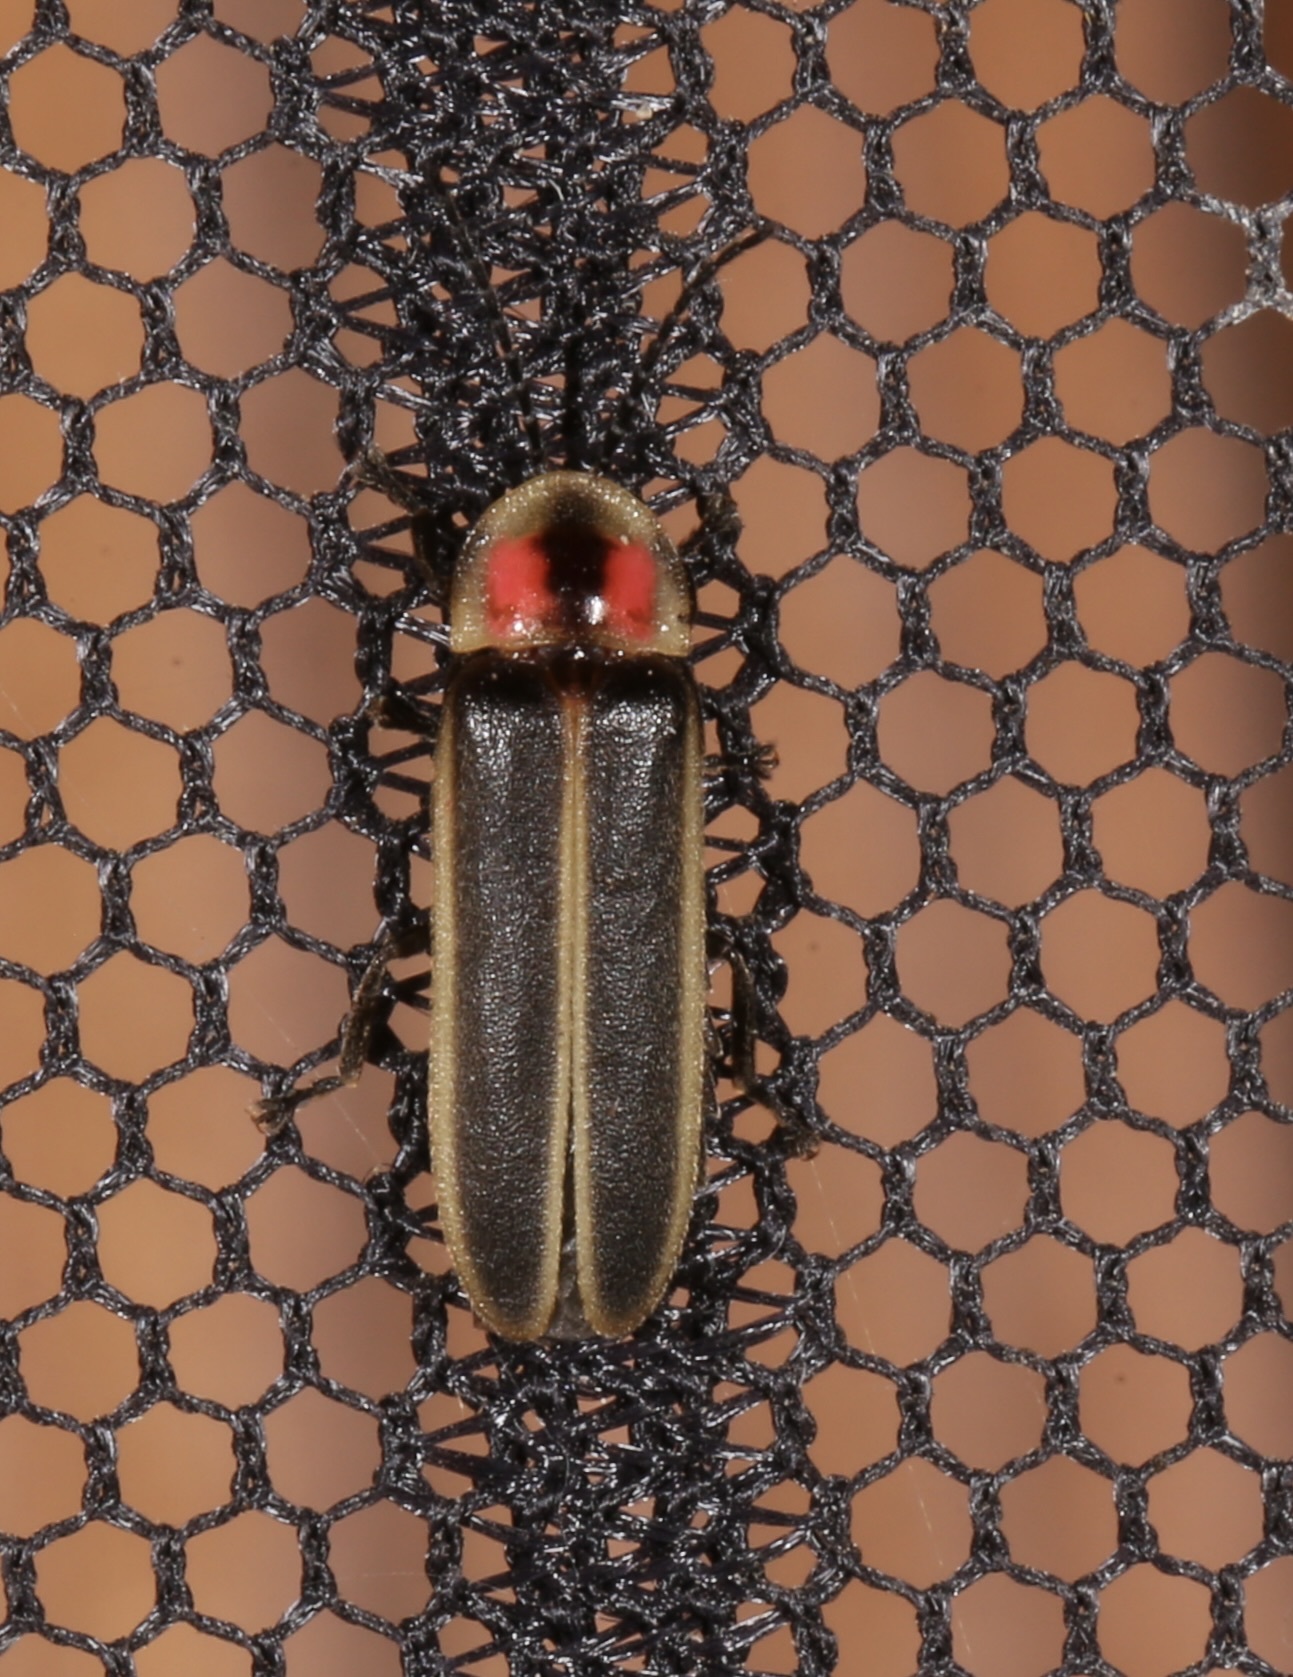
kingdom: Animalia
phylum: Arthropoda
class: Insecta
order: Coleoptera
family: Lampyridae
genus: Photinus
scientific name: Photinus knulli
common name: Fall southwest firefly
